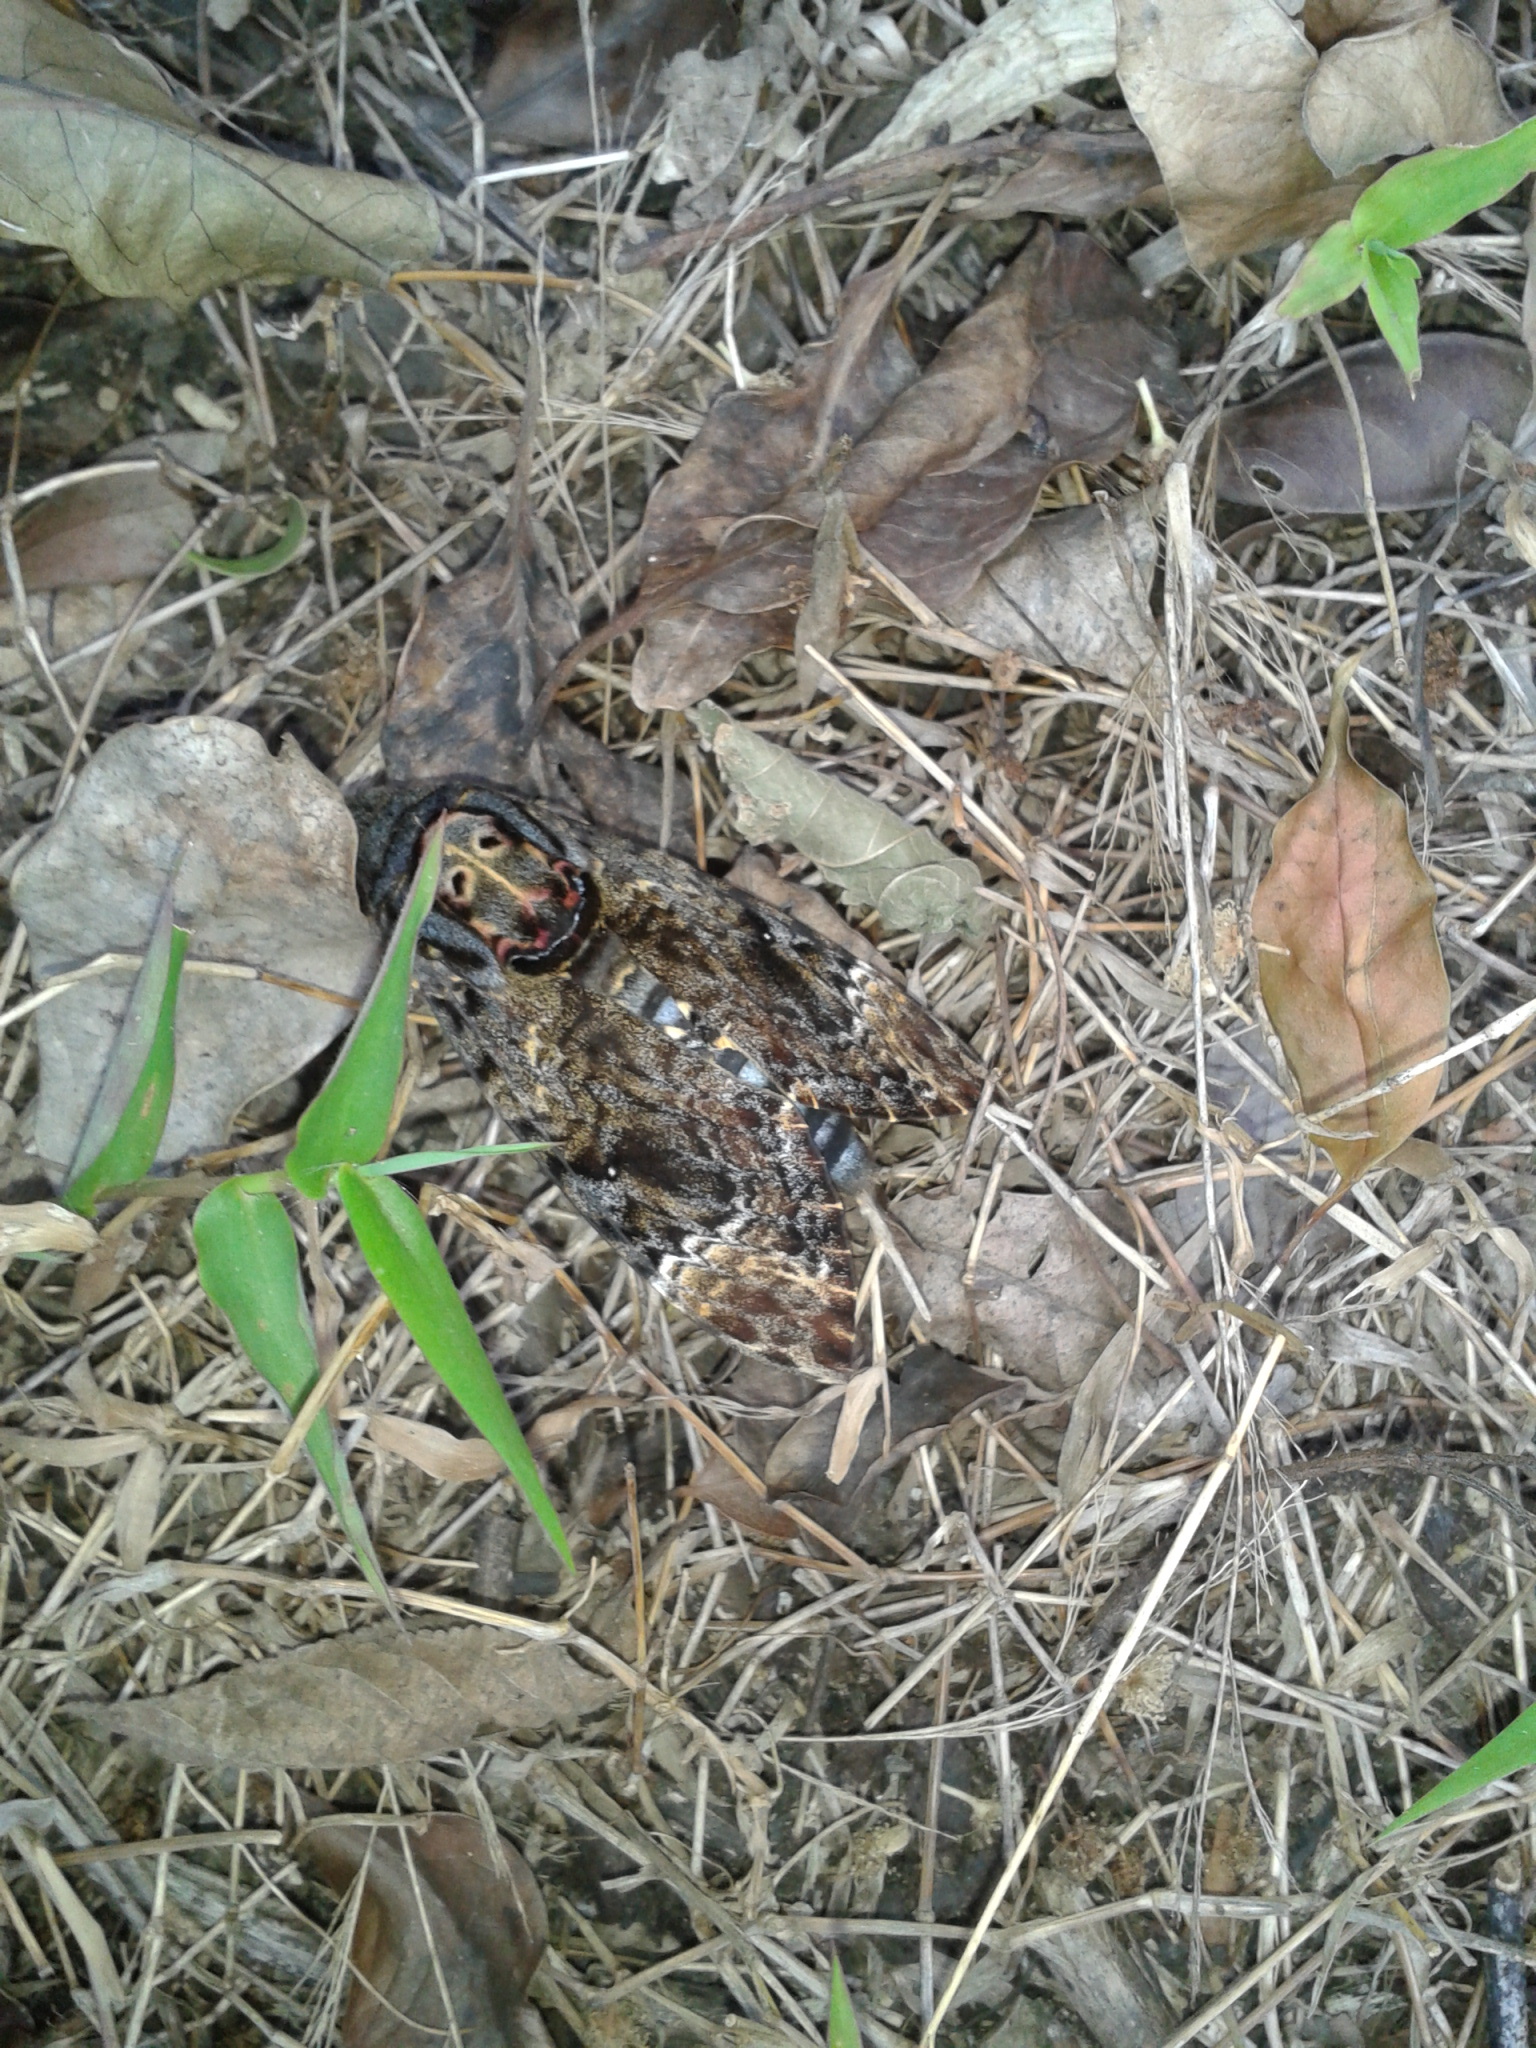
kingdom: Animalia
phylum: Arthropoda
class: Insecta
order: Lepidoptera
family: Sphingidae
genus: Acherontia
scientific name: Acherontia lachesis
